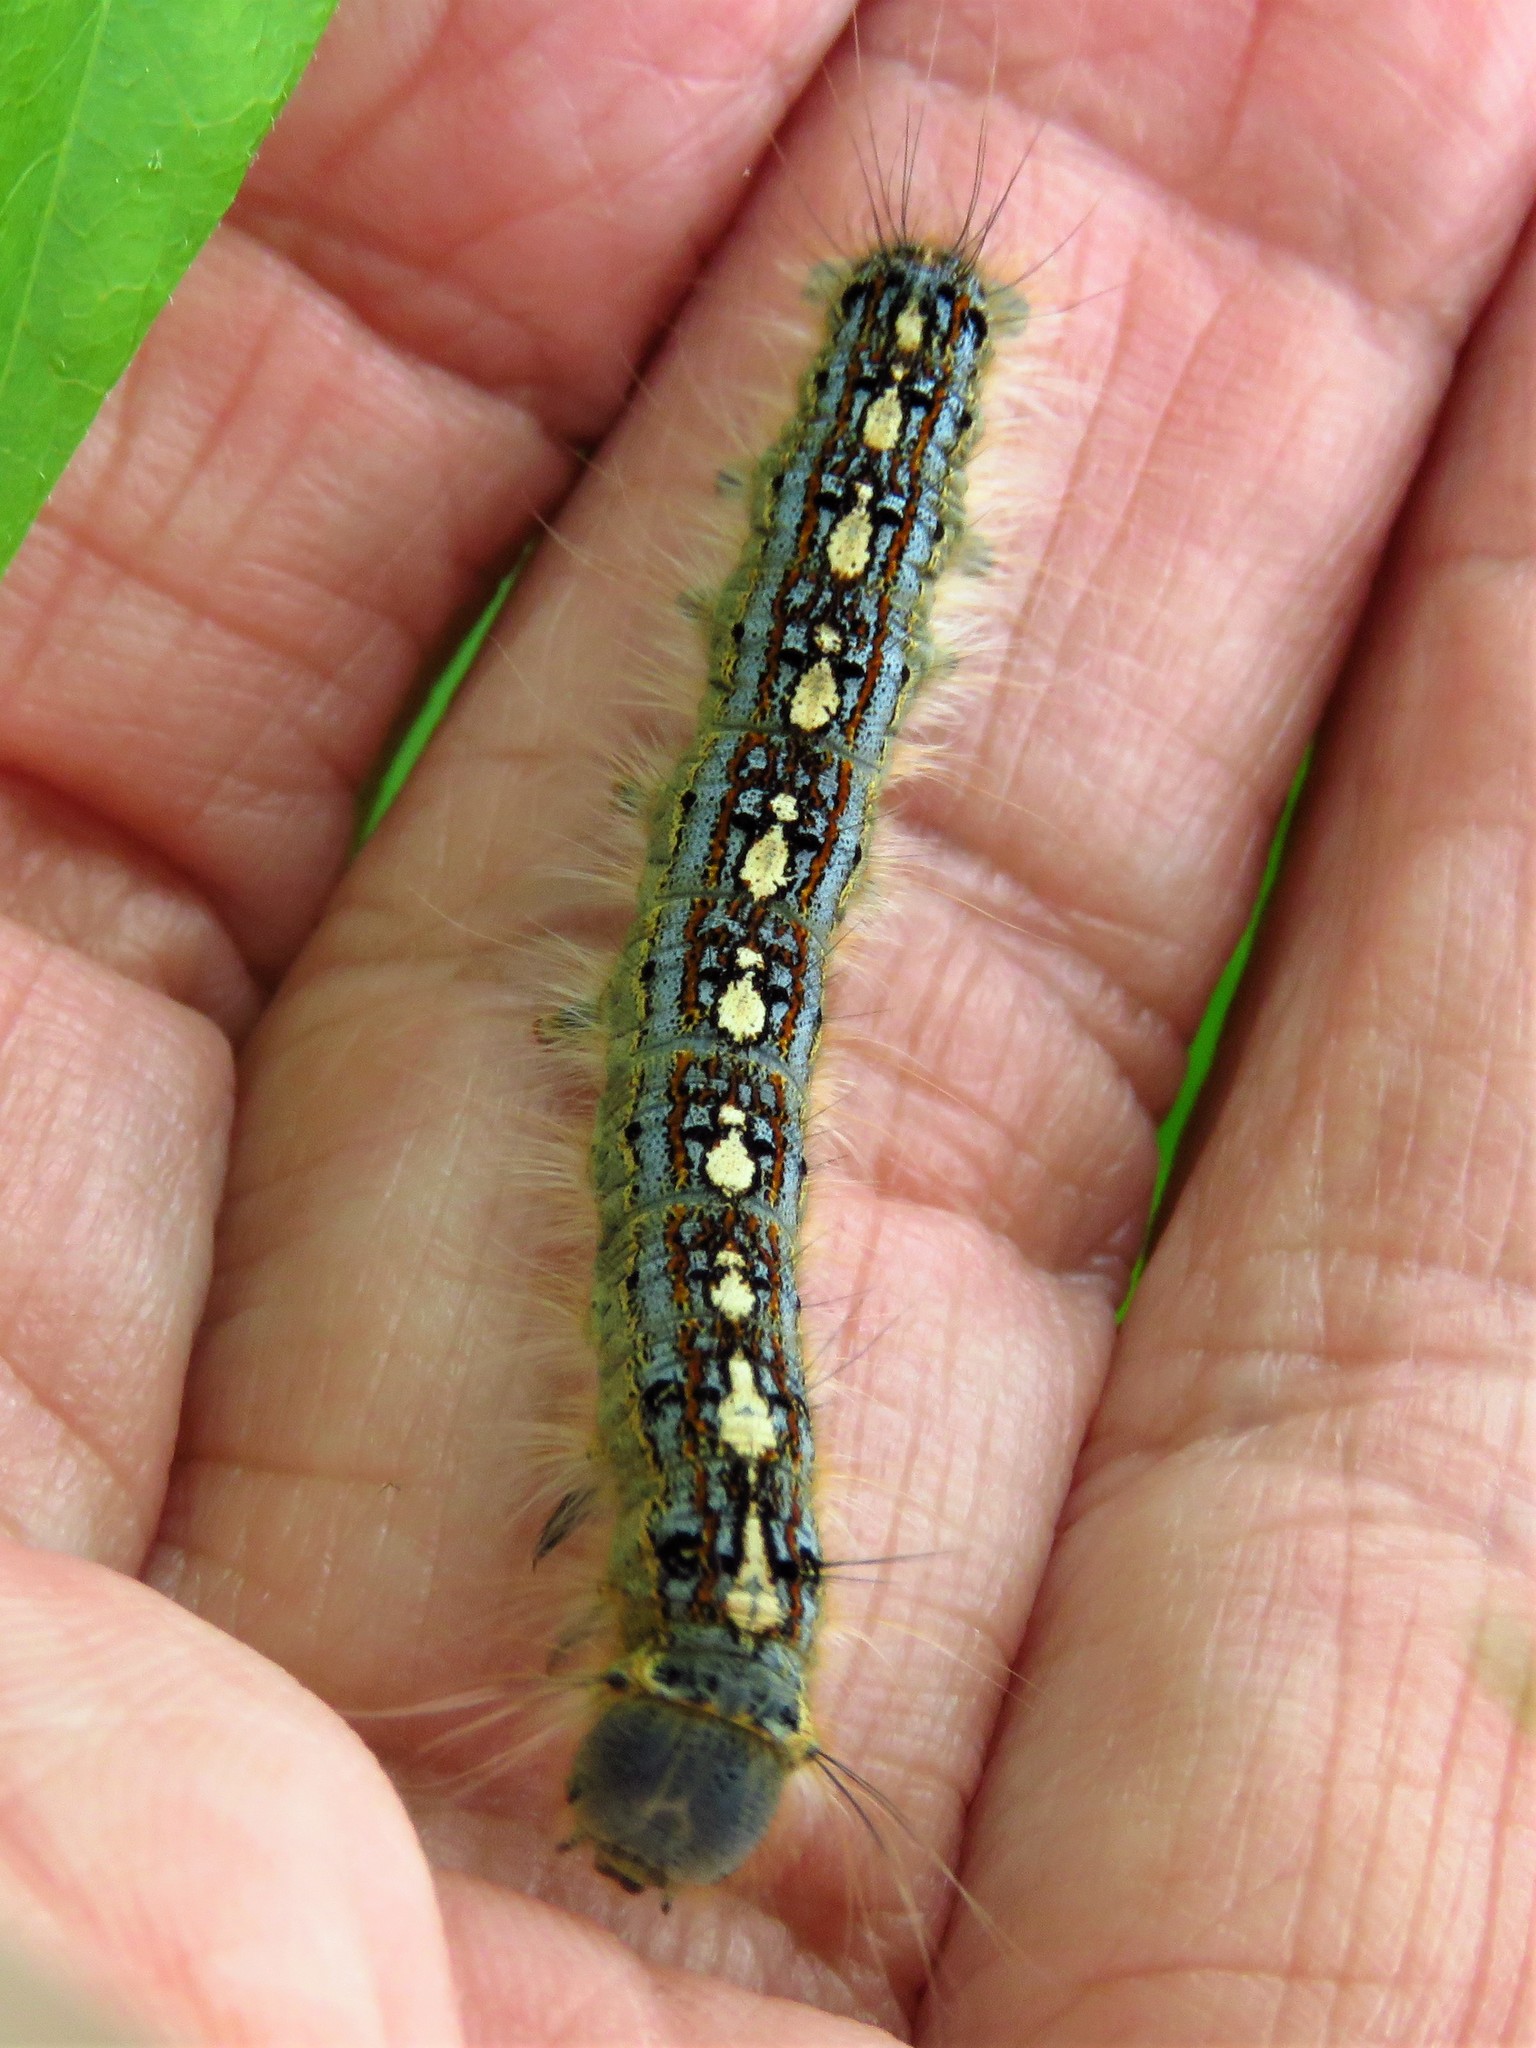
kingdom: Animalia
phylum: Arthropoda
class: Insecta
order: Lepidoptera
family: Lasiocampidae
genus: Malacosoma
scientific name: Malacosoma disstria
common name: Forest tent caterpillar
